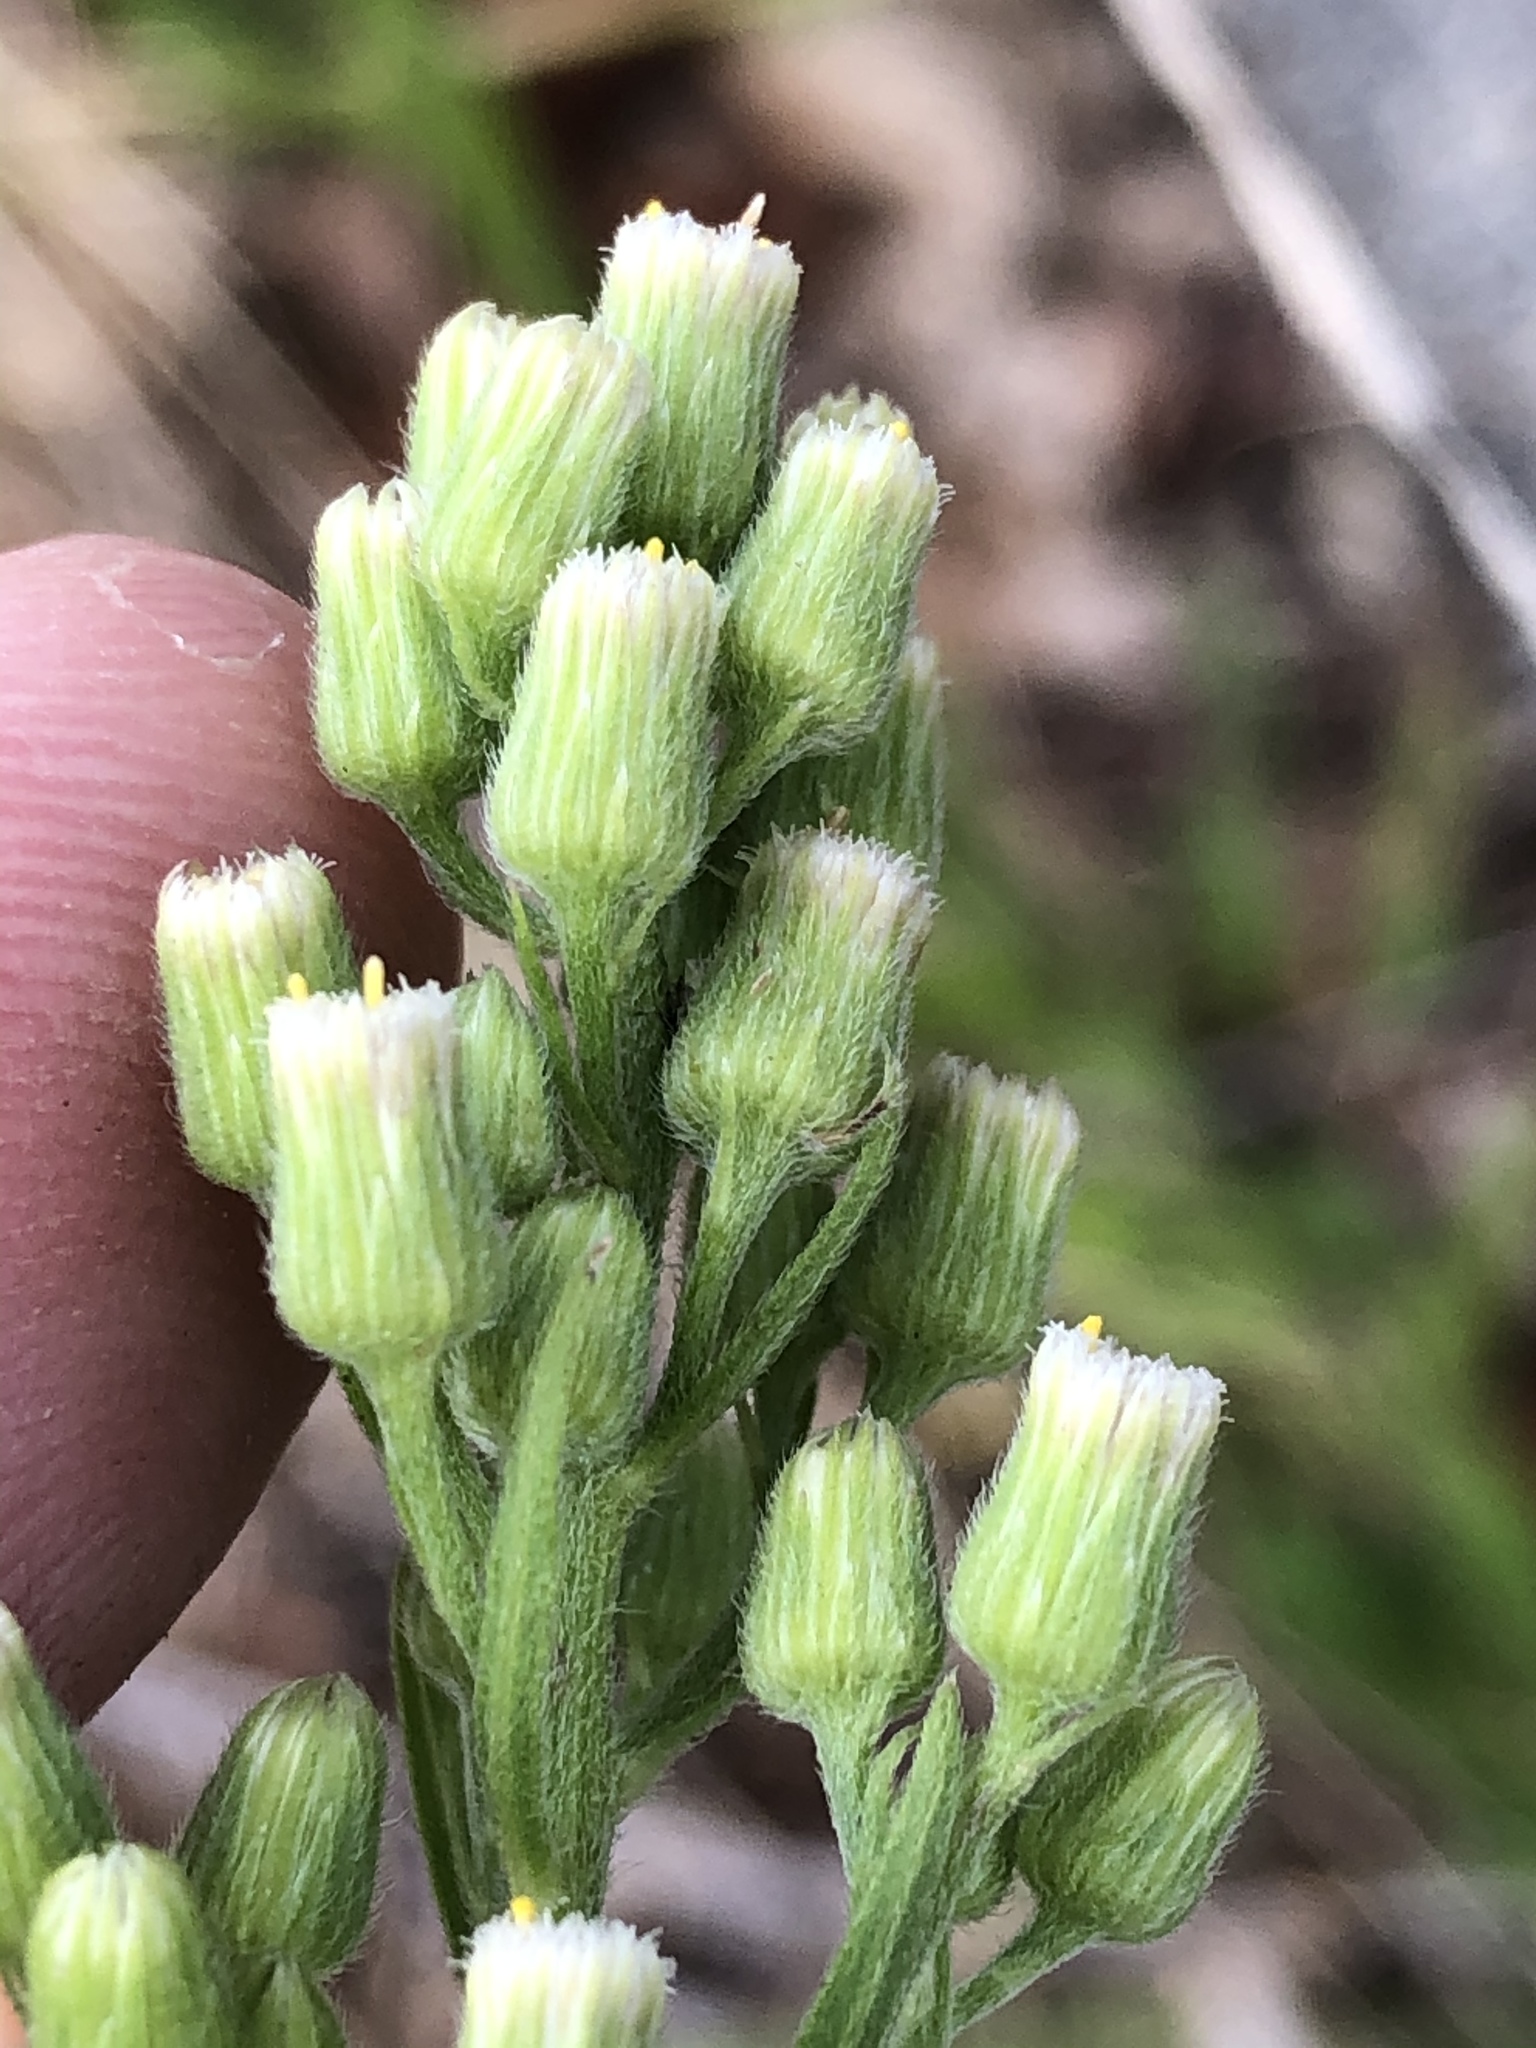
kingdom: Plantae
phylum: Tracheophyta
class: Magnoliopsida
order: Asterales
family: Asteraceae
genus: Erigeron
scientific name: Erigeron sumatrensis
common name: Daisy
